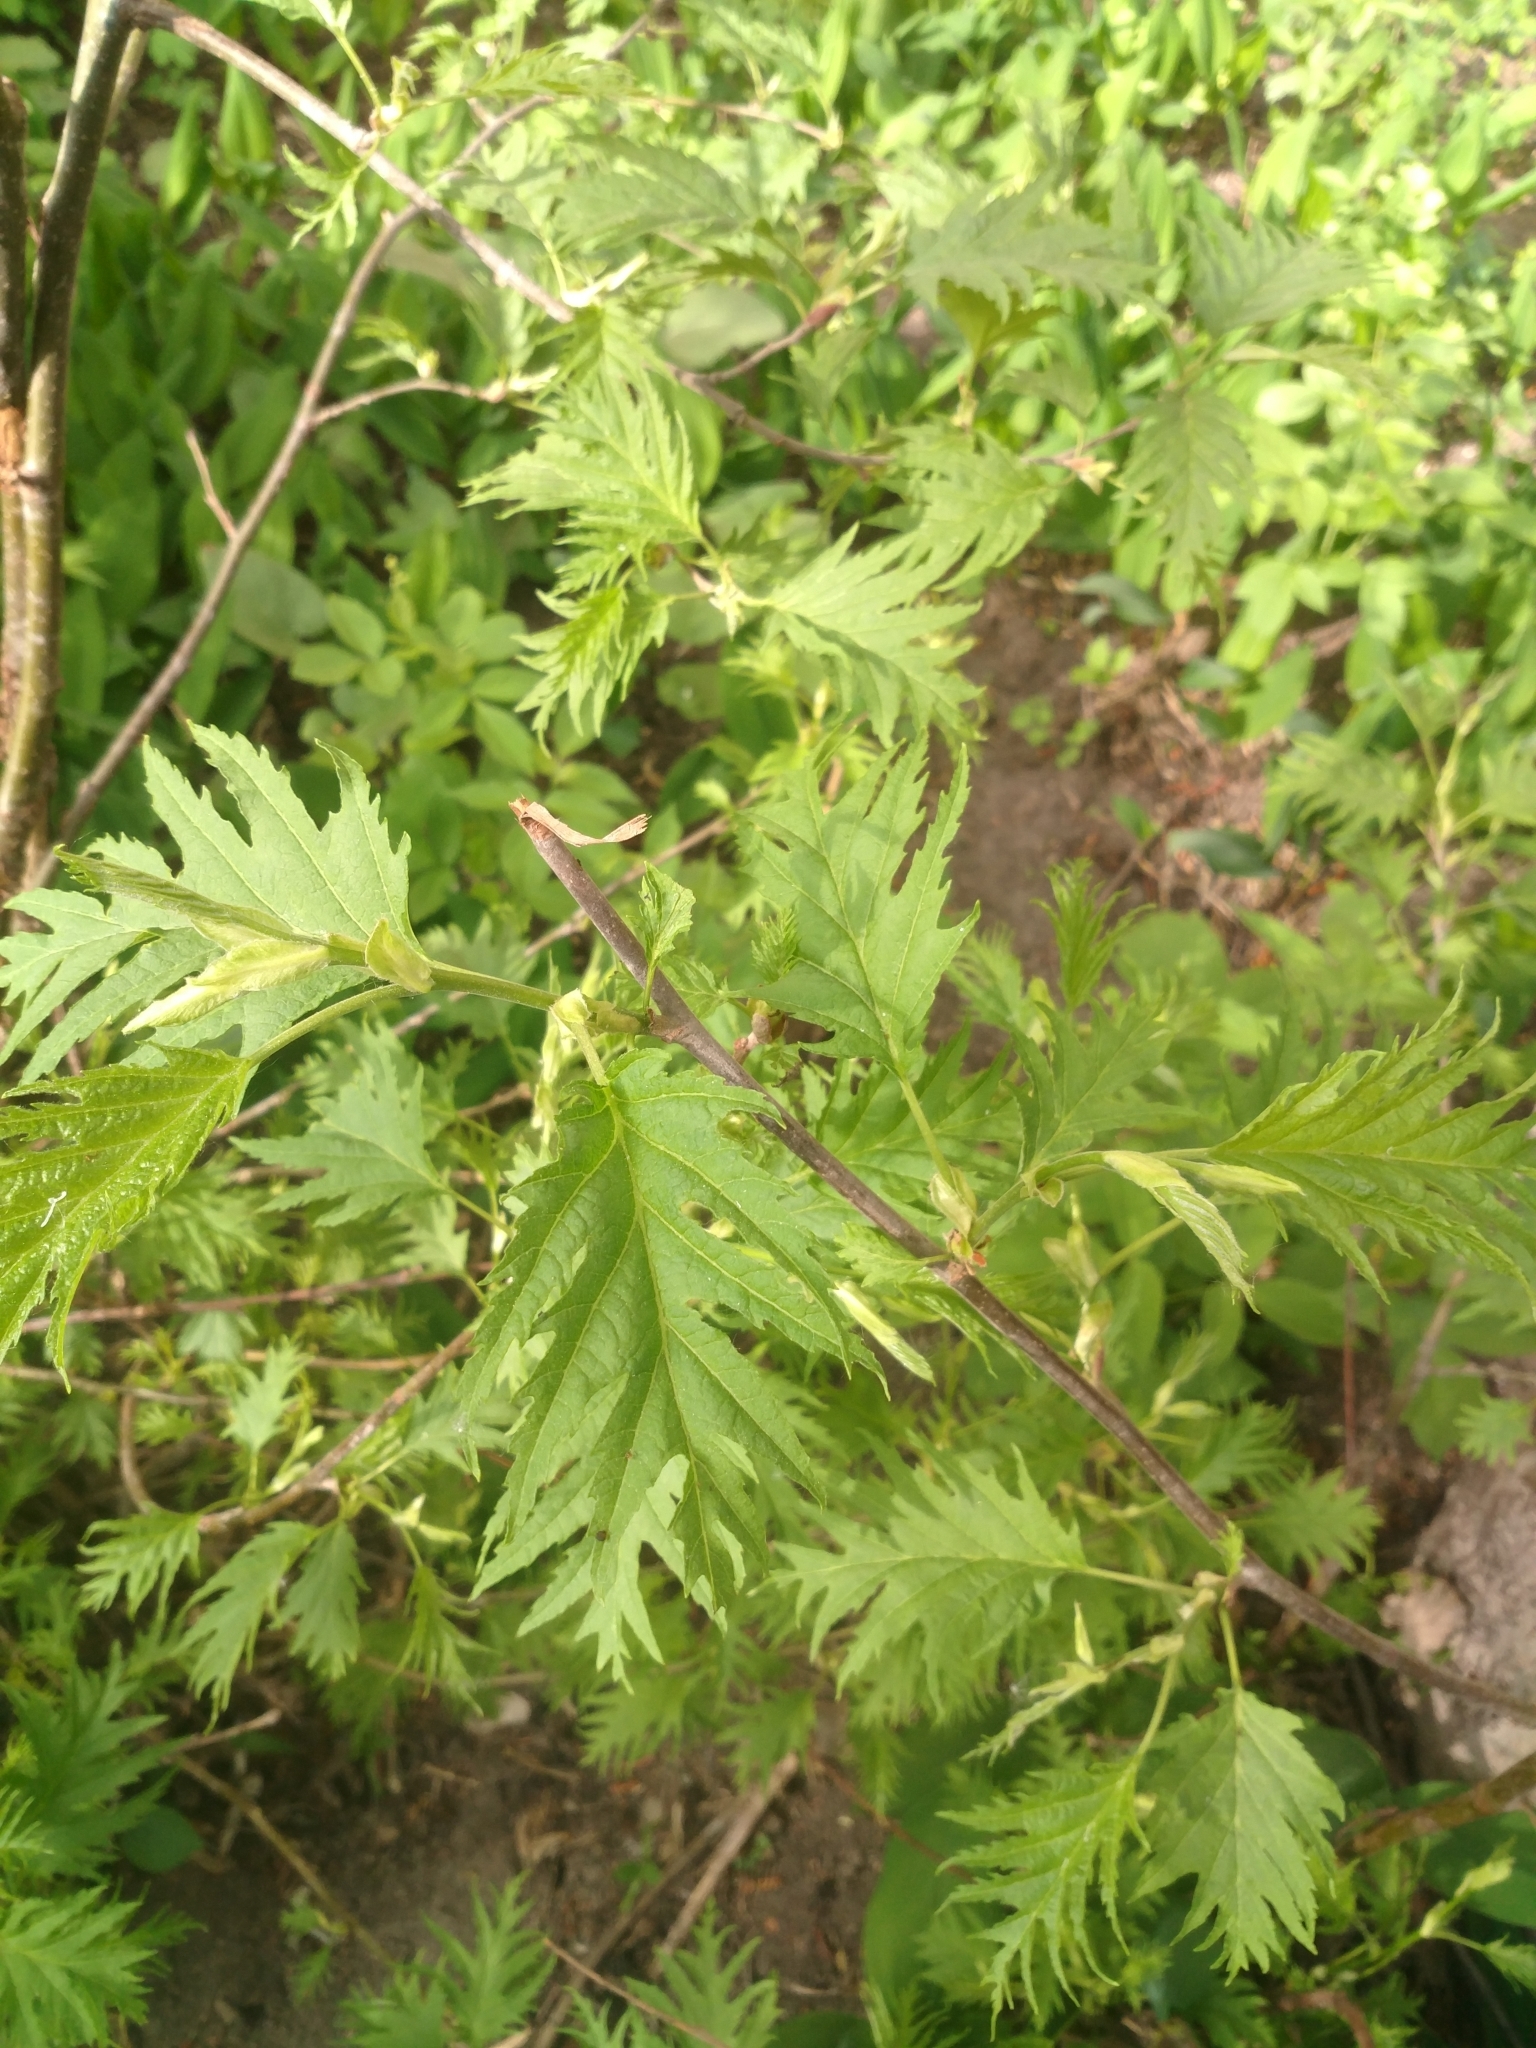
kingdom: Plantae
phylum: Tracheophyta
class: Magnoliopsida
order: Rosales
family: Urticaceae
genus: Urtica
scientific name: Urtica cannabina
